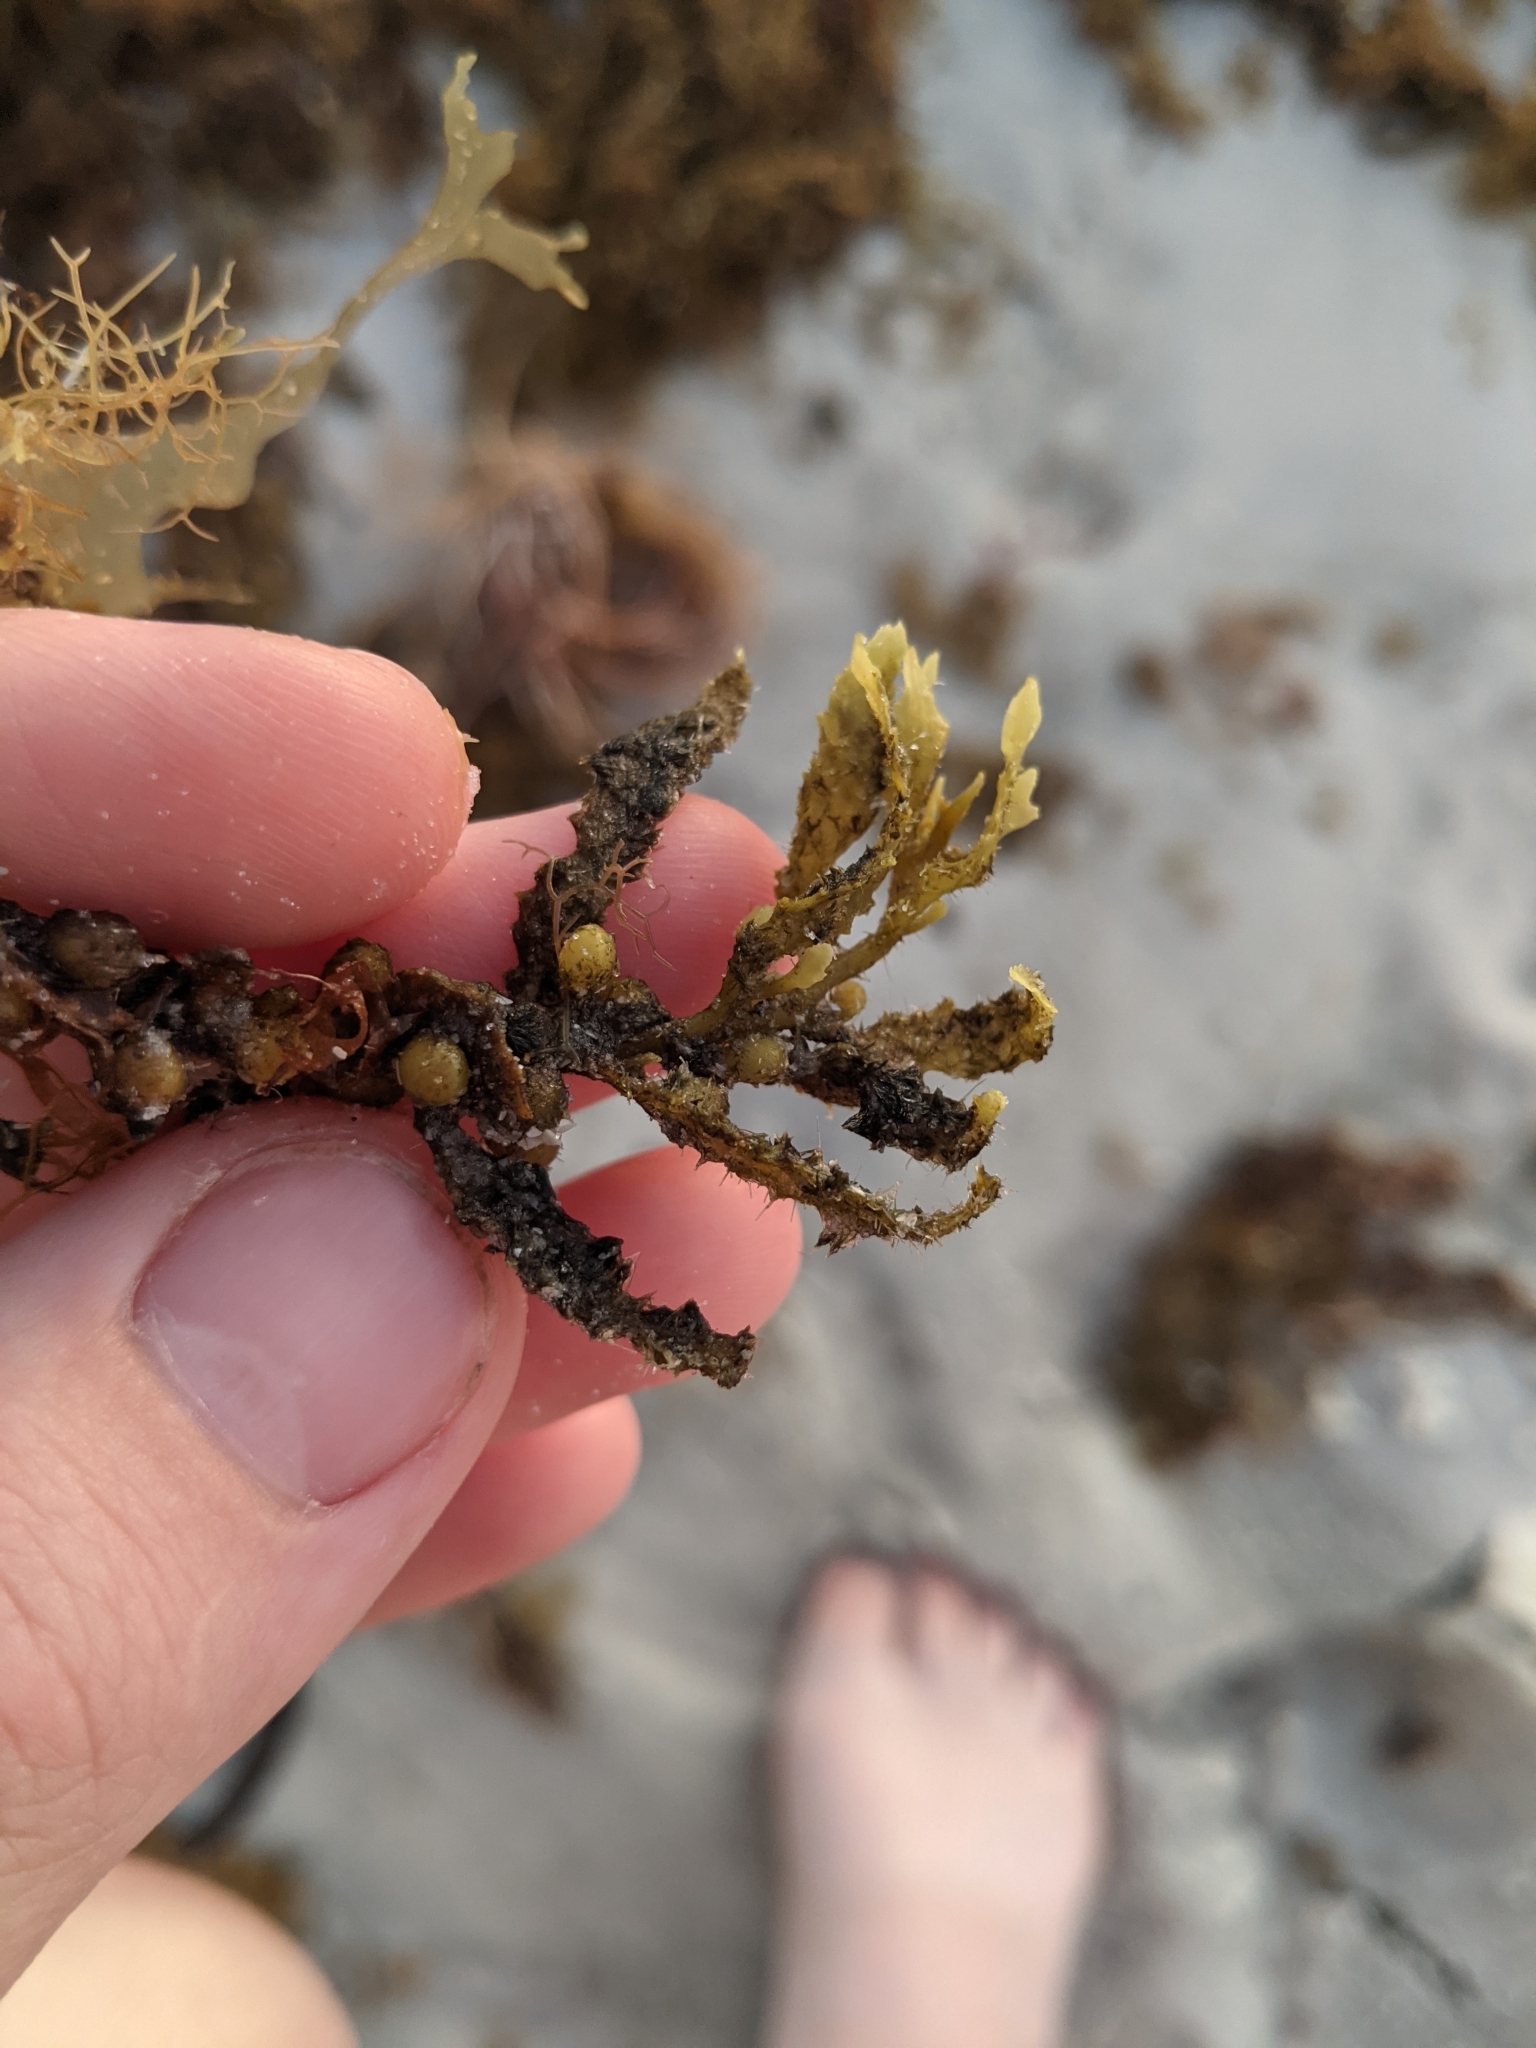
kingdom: Chromista
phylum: Ochrophyta
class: Phaeophyceae
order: Fucales
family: Sargassaceae
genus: Sargassum
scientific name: Sargassum fluitans
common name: Sargassum seaweed
